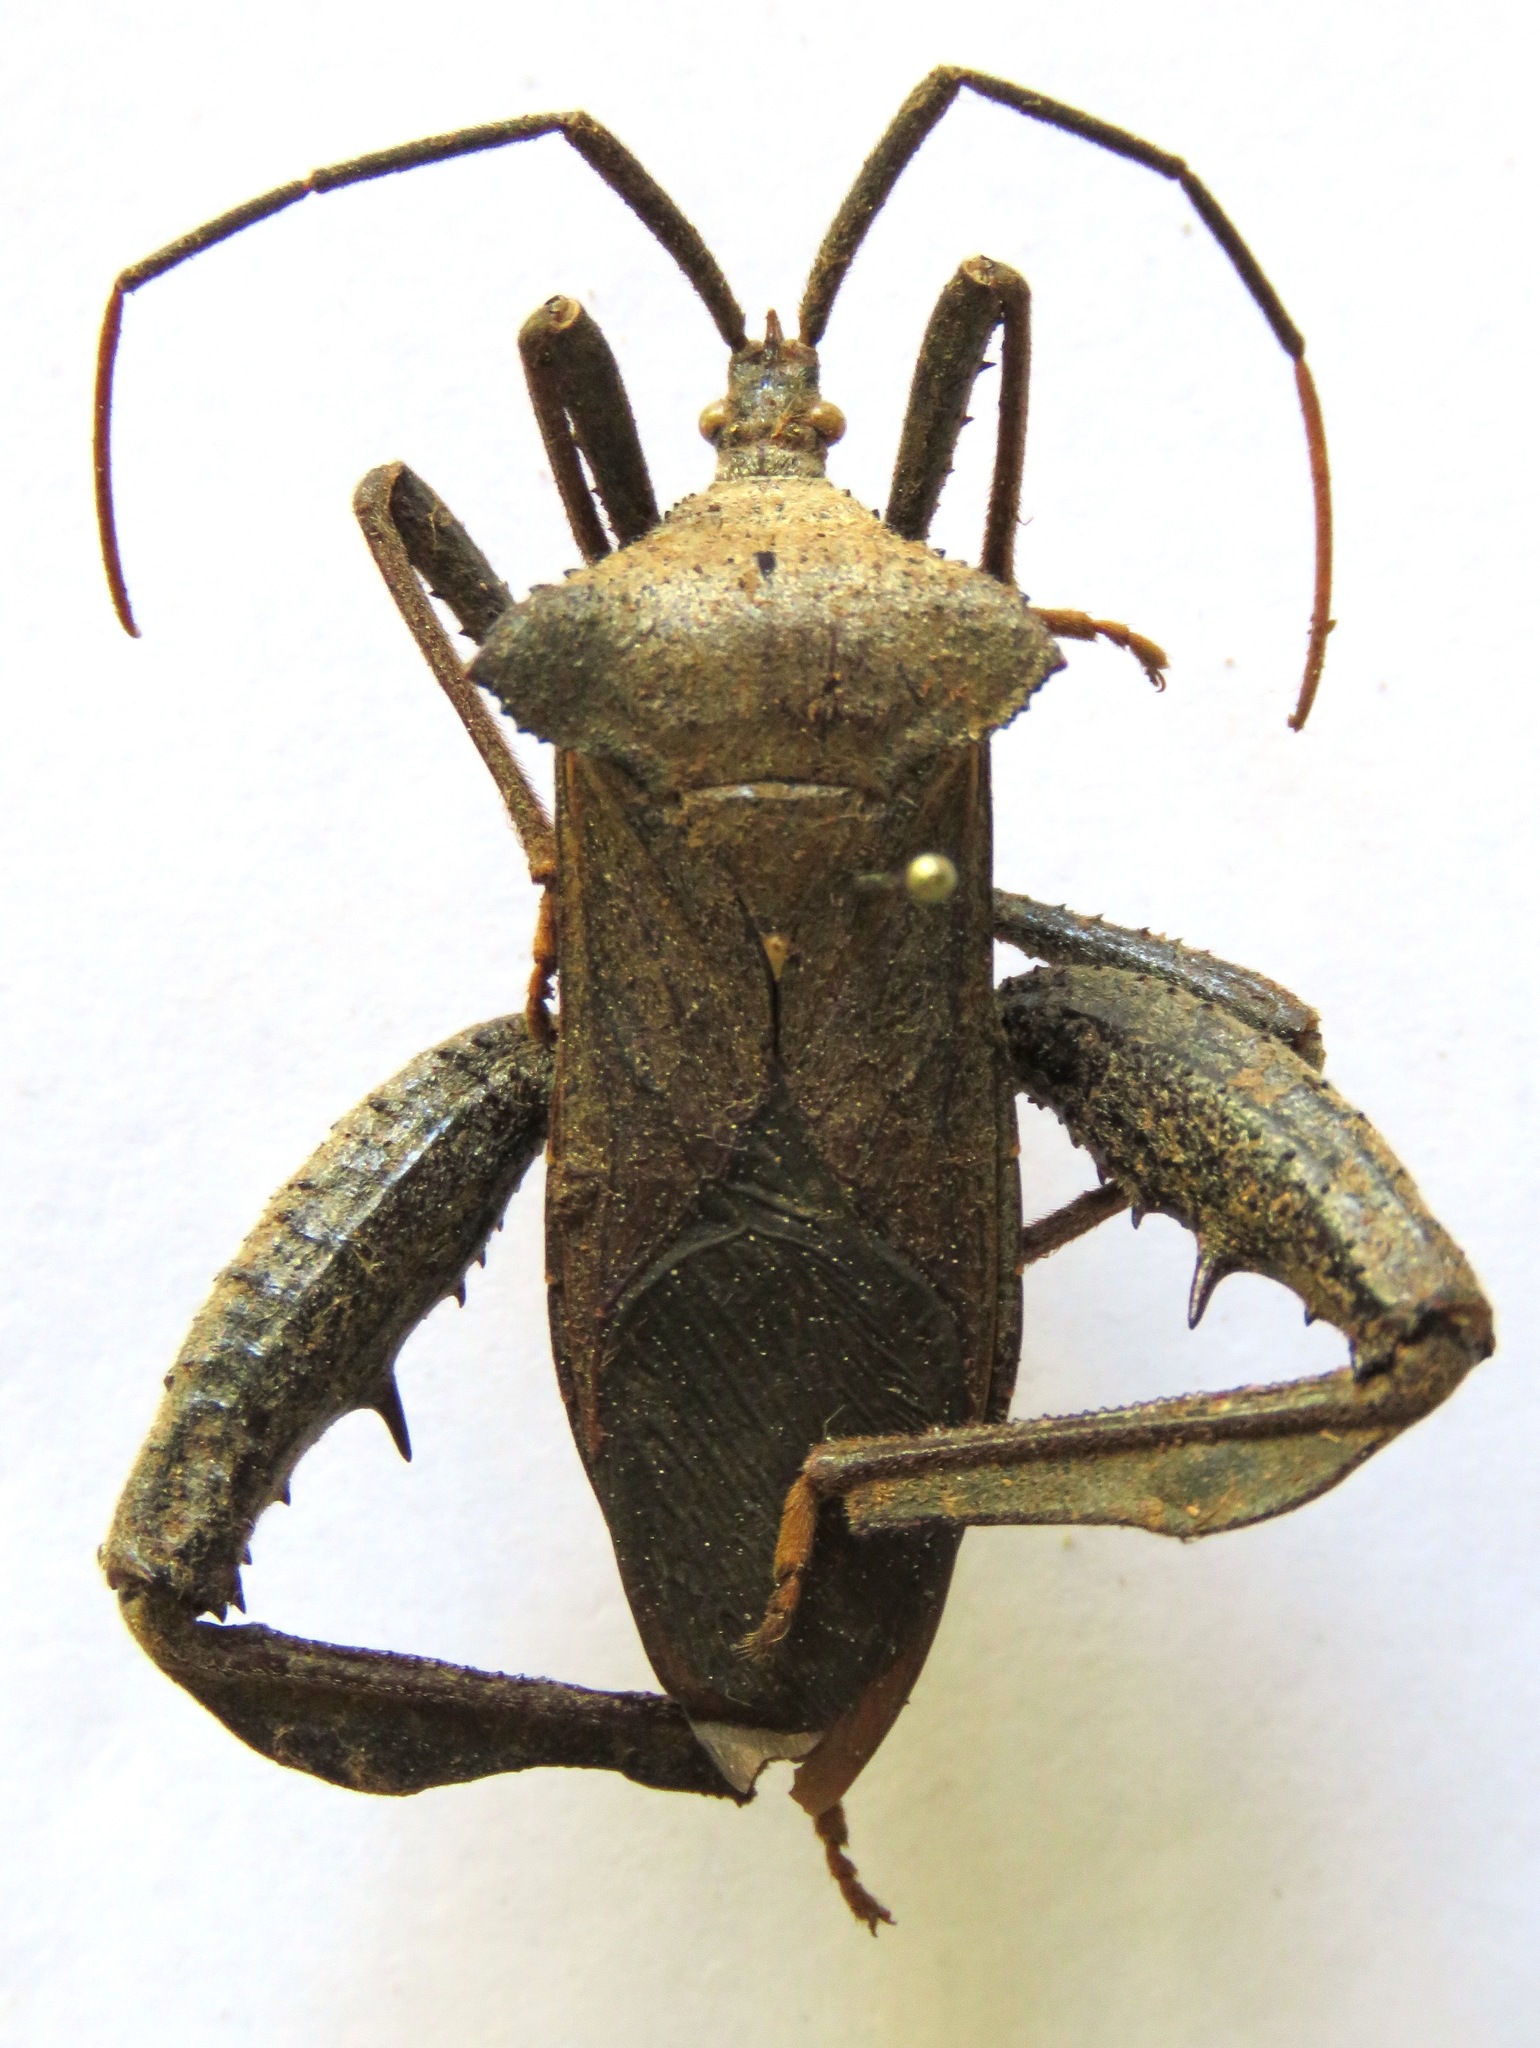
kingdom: Animalia
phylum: Arthropoda
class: Insecta
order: Hemiptera
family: Coreidae
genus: Acanthocephala
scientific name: Acanthocephala alata
